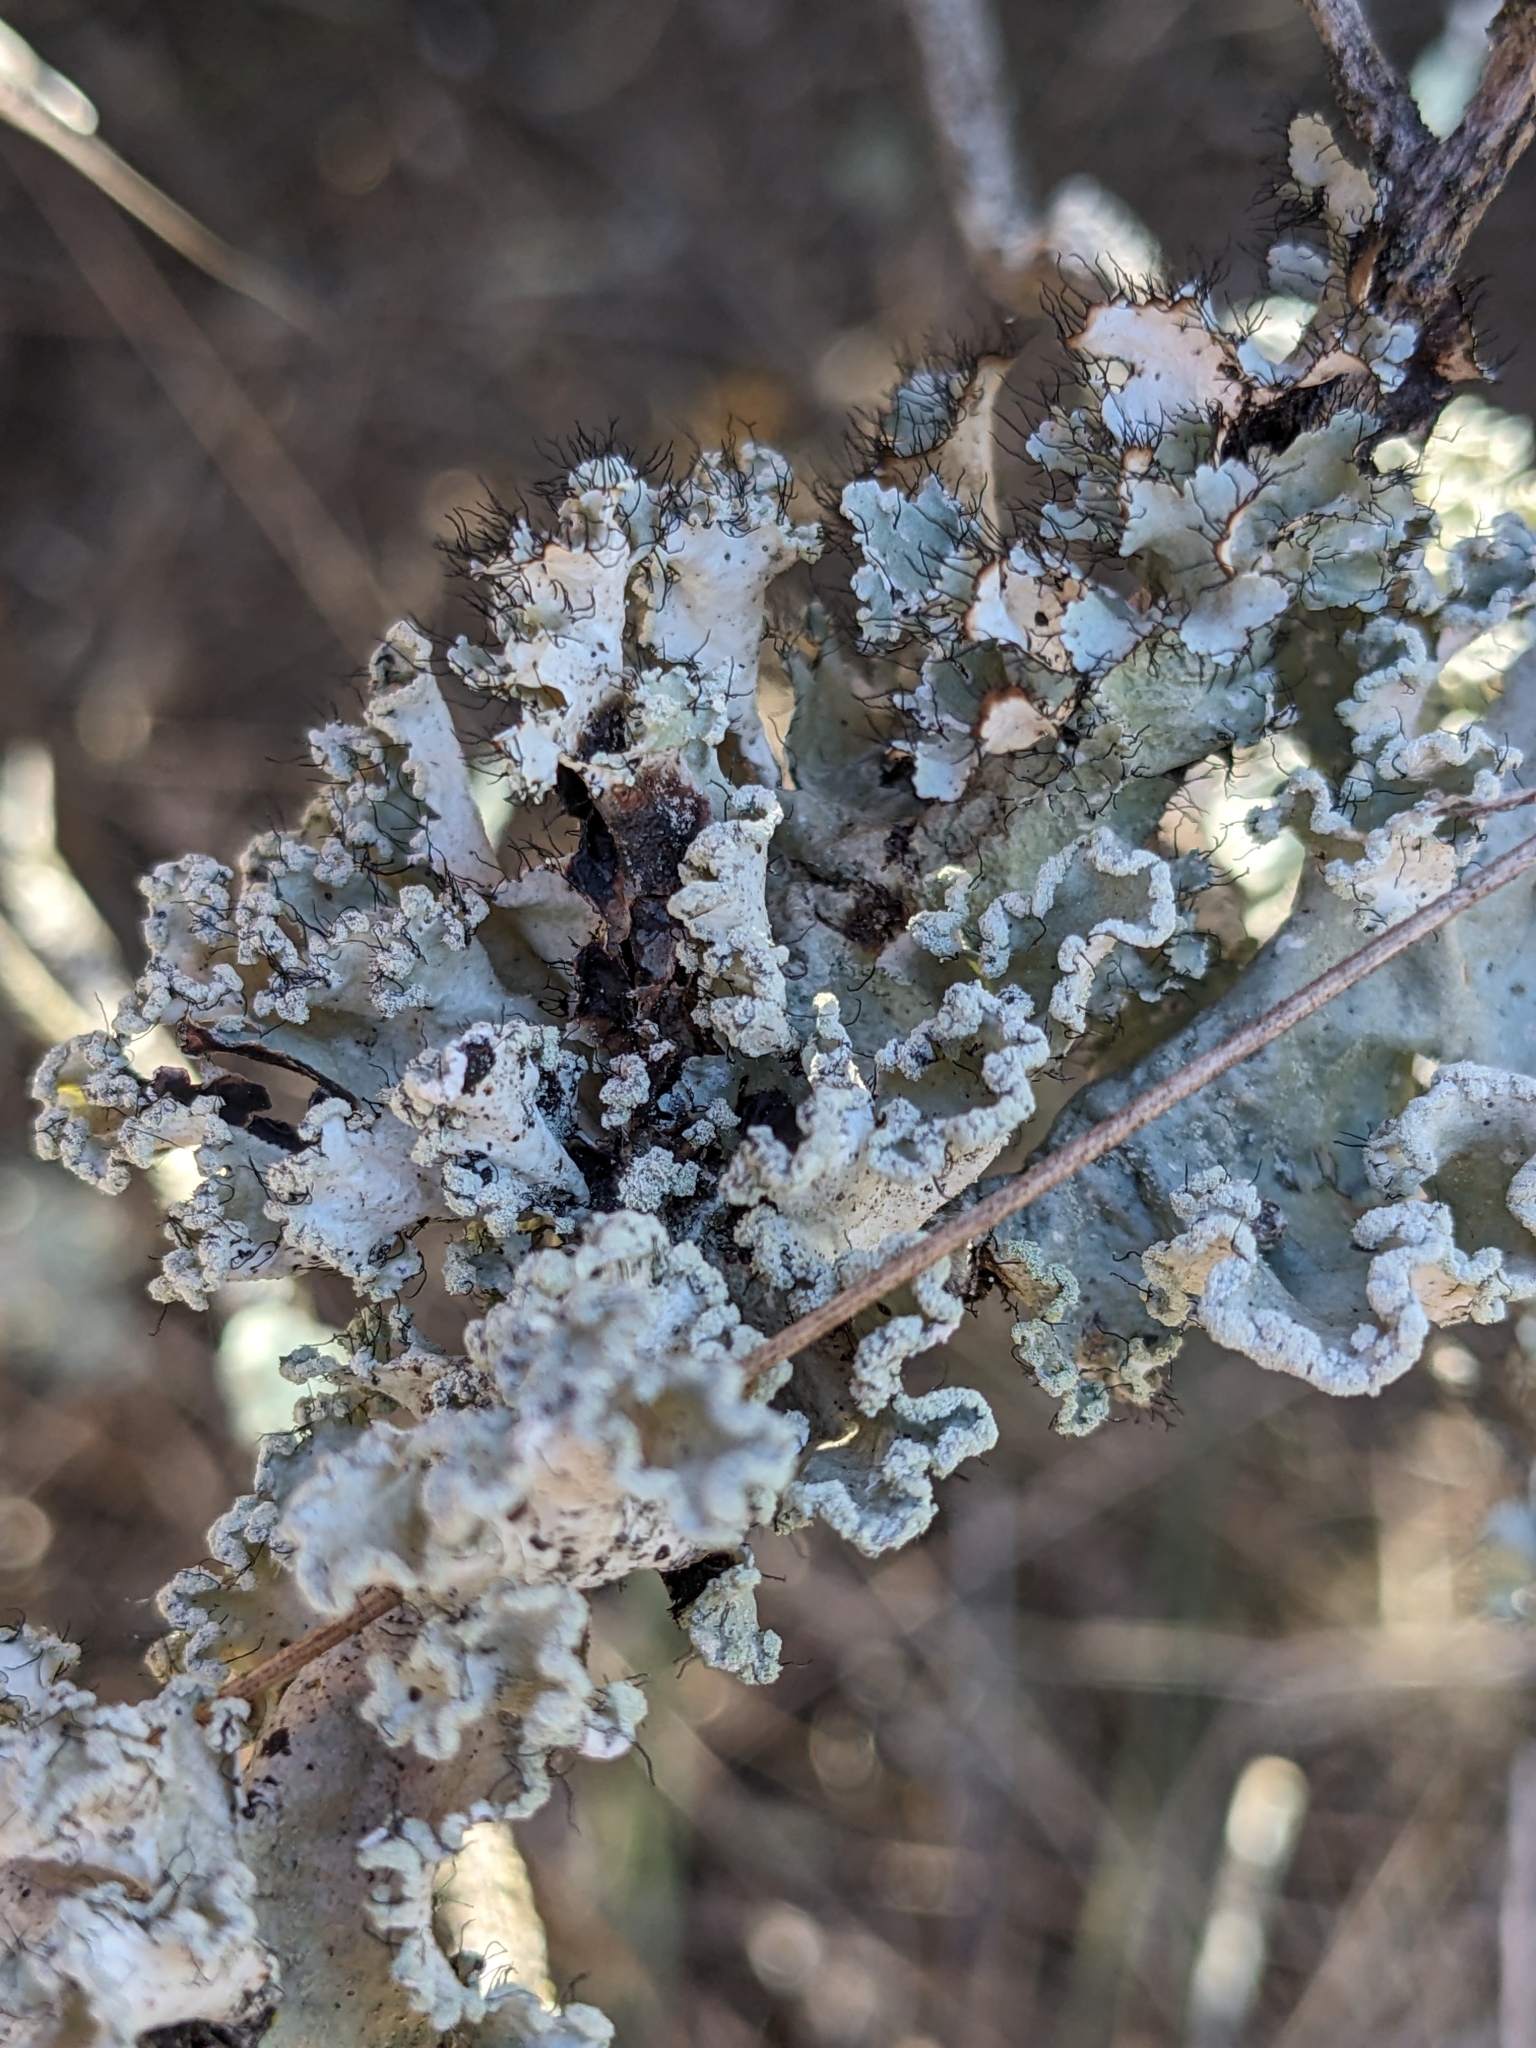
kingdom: Fungi
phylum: Ascomycota
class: Lecanoromycetes
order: Lecanorales
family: Parmeliaceae
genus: Parmotrema
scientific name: Parmotrema reticulatum
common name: Black sheet lichen
